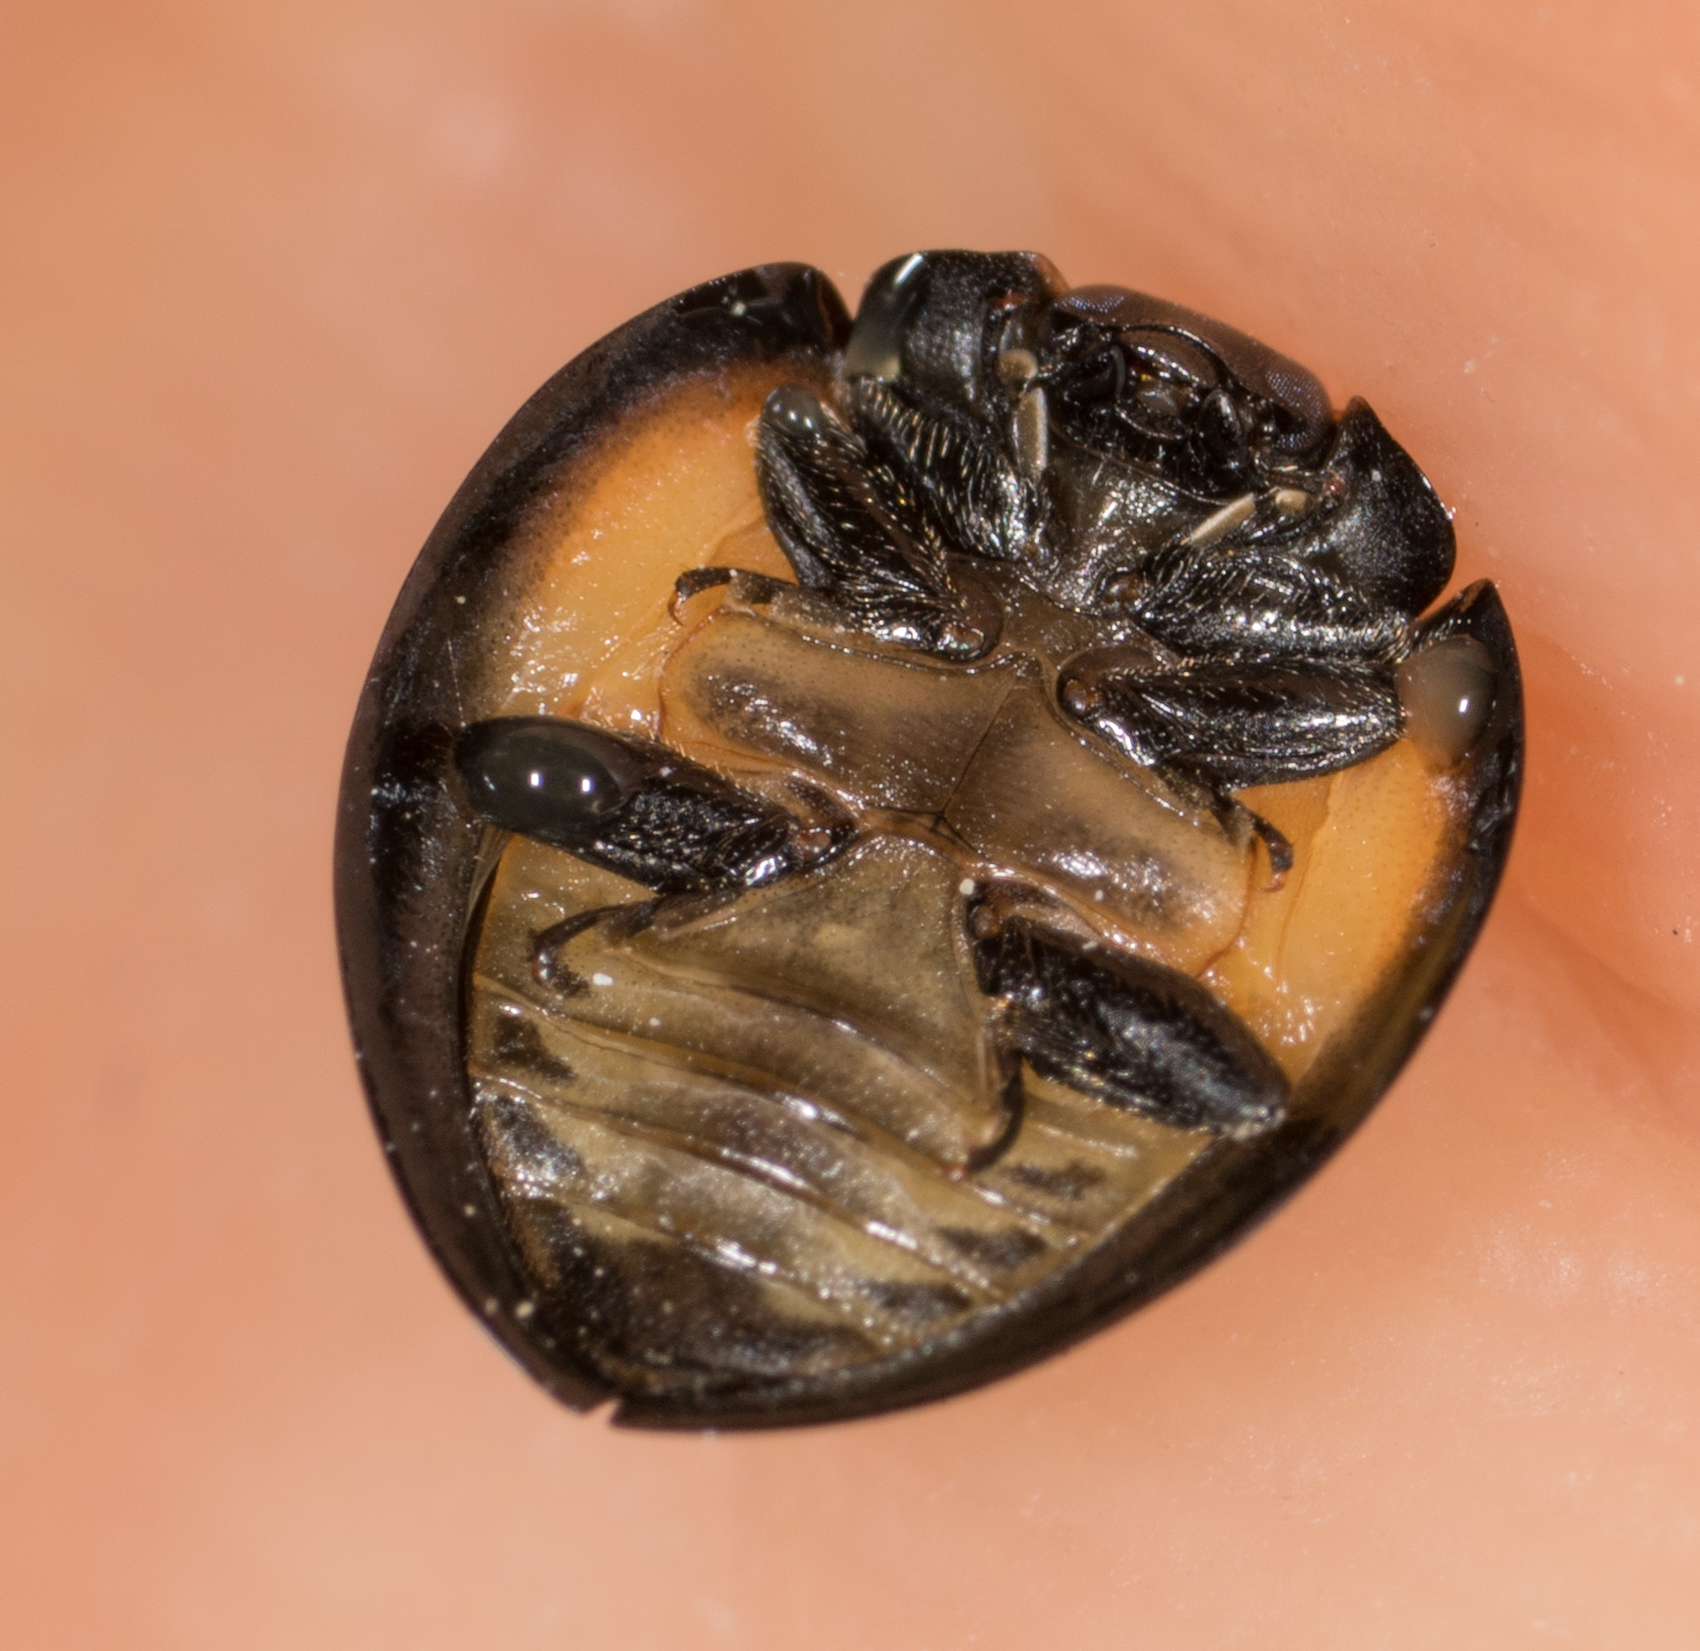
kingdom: Animalia
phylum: Arthropoda
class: Insecta
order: Coleoptera
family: Coccinellidae
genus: Axion
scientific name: Axion plagiatum
